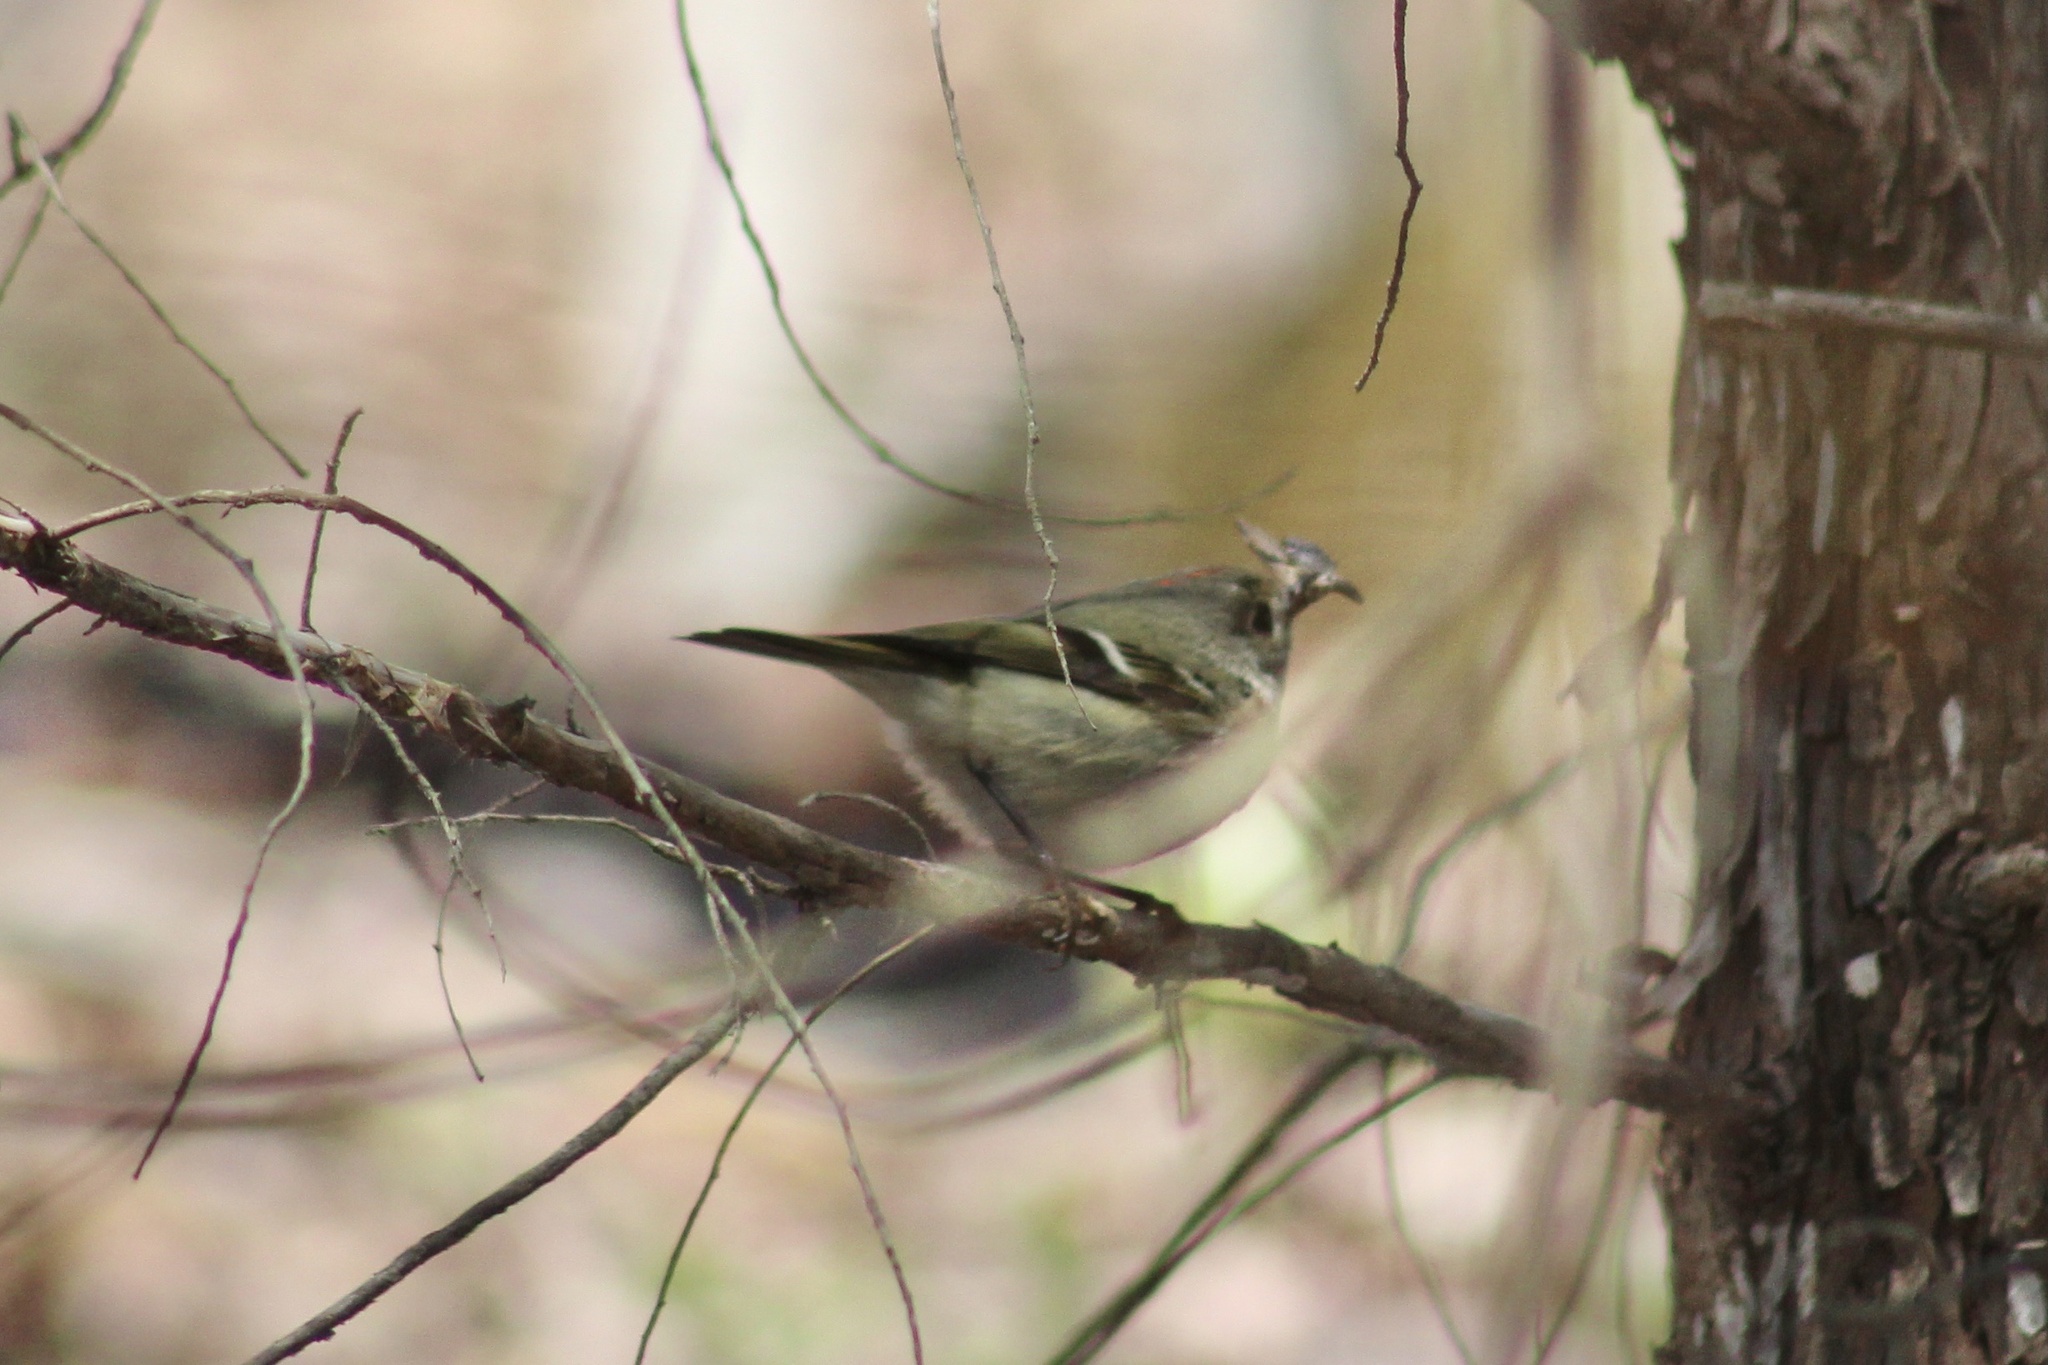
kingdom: Animalia
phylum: Chordata
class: Aves
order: Passeriformes
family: Regulidae
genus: Regulus
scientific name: Regulus calendula
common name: Ruby-crowned kinglet
